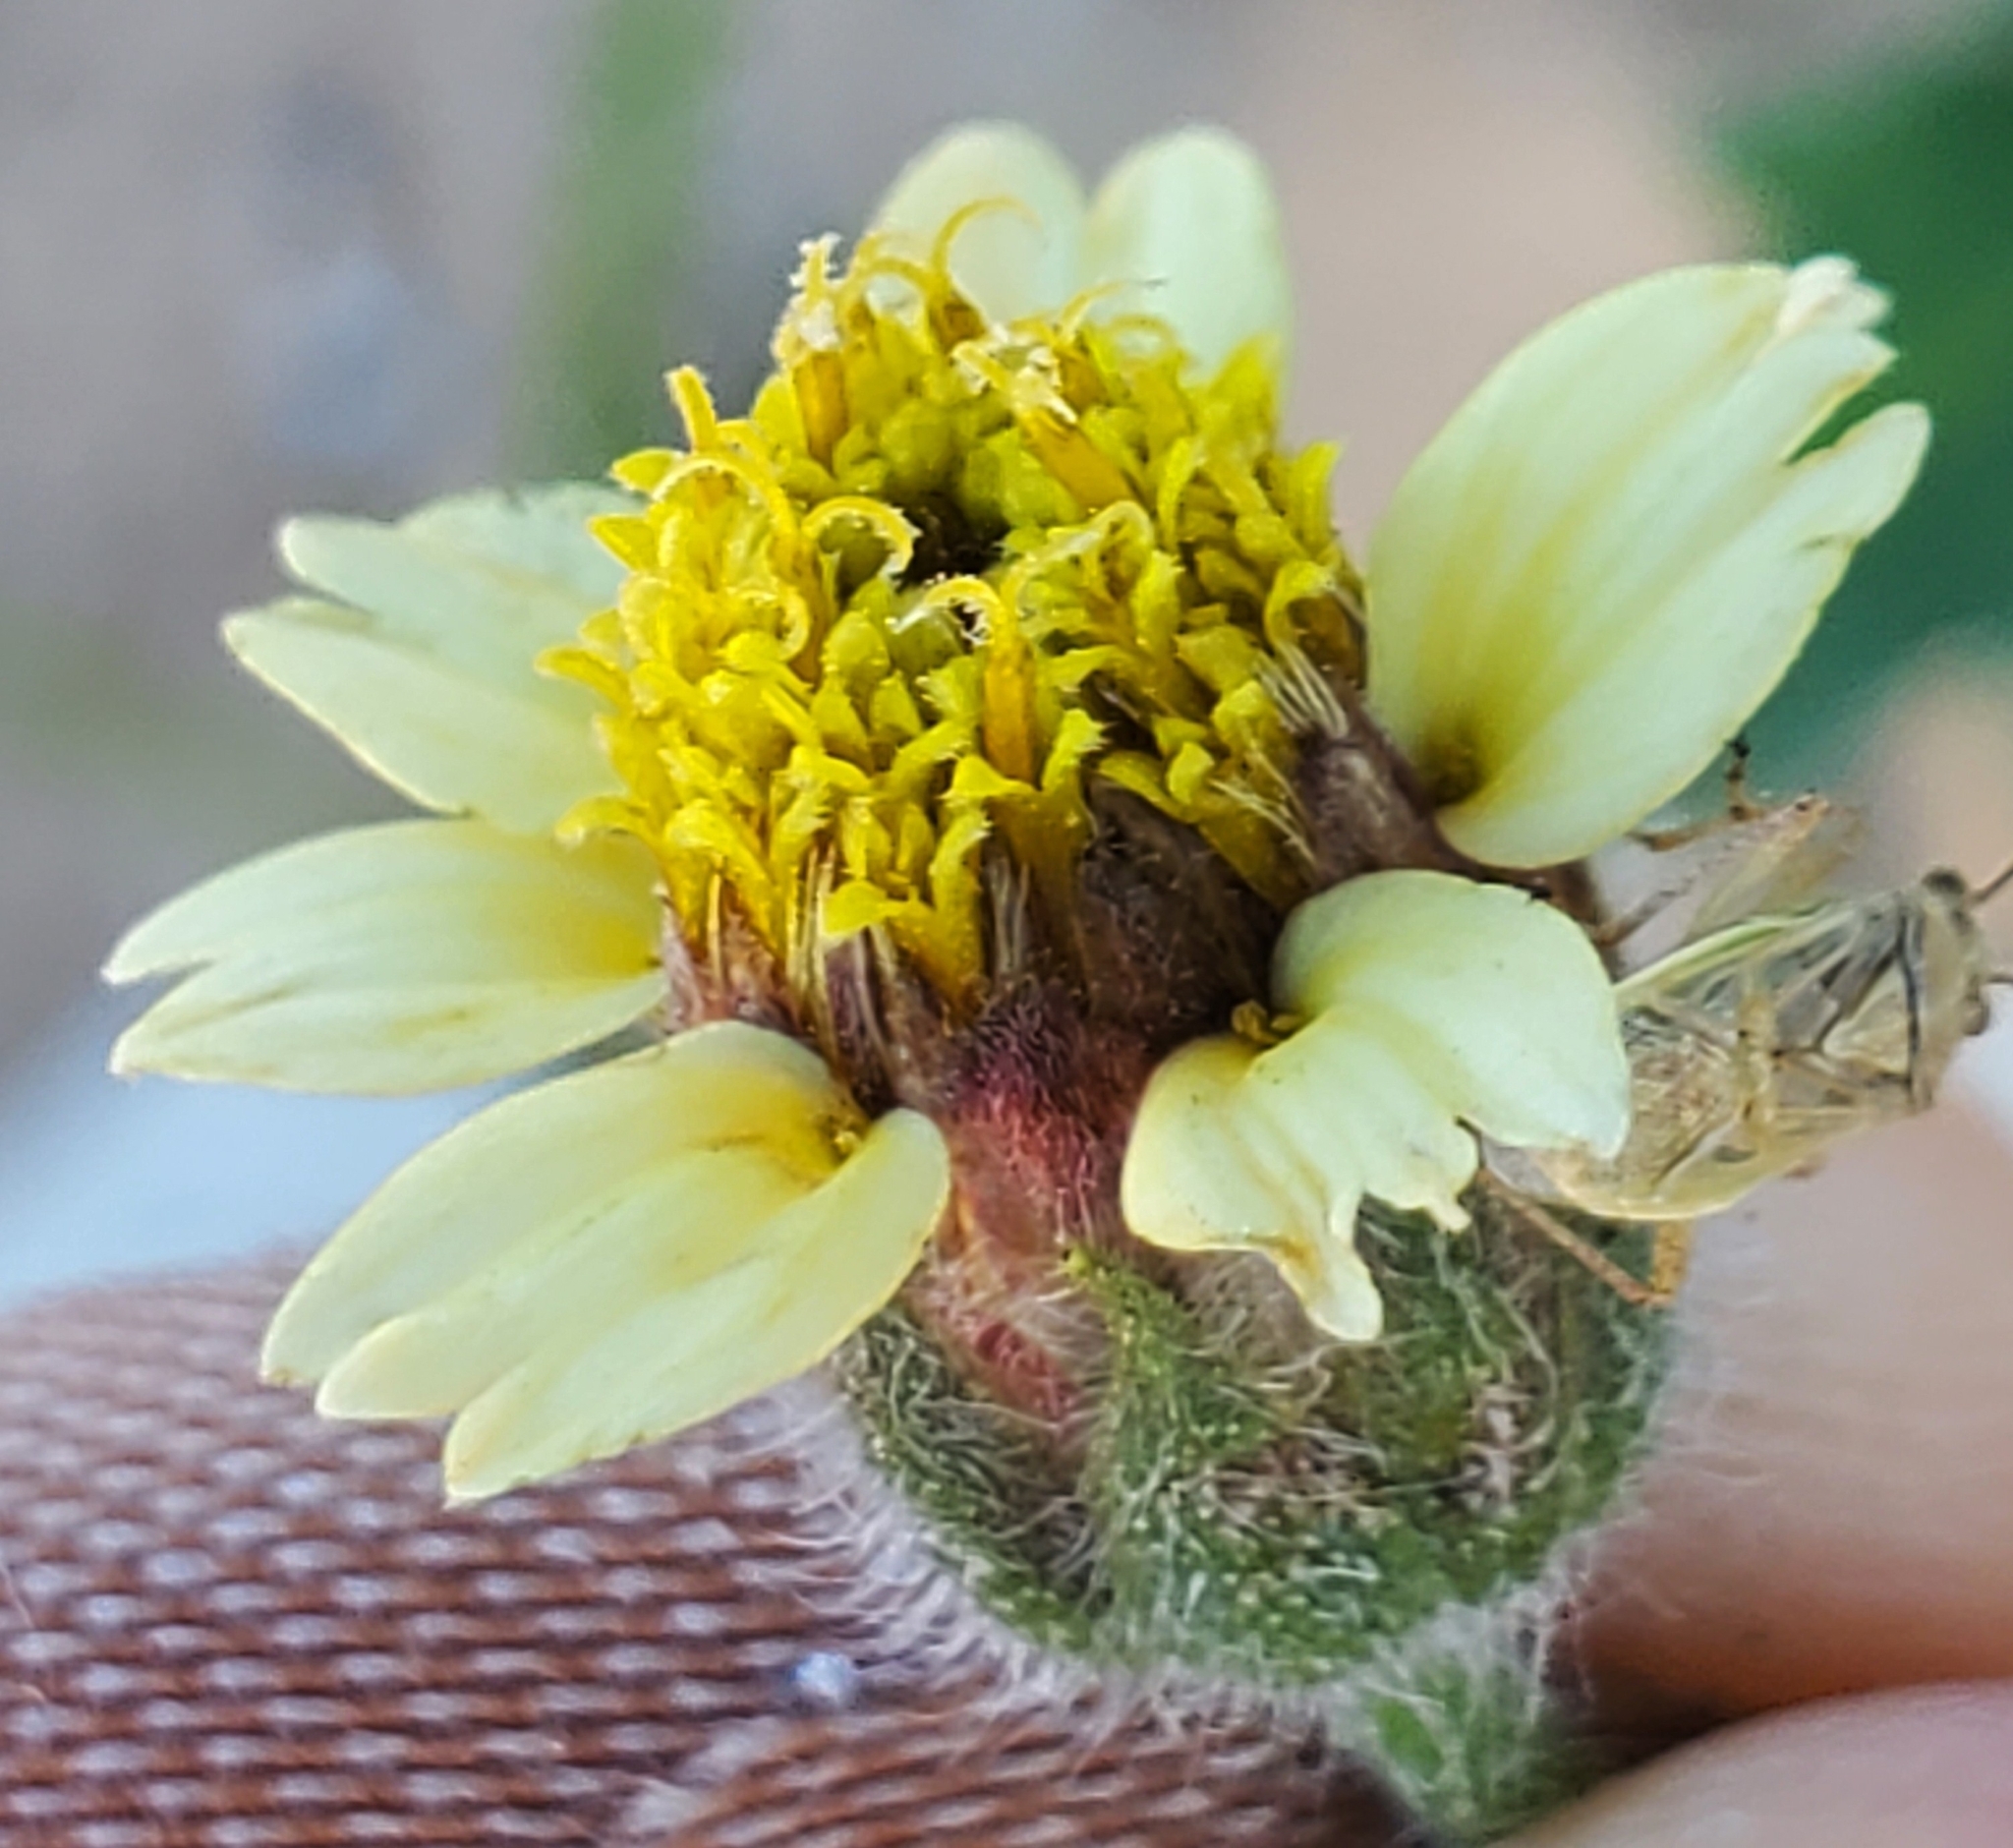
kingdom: Plantae
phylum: Tracheophyta
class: Magnoliopsida
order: Asterales
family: Asteraceae
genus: Tridax
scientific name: Tridax procumbens
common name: Coatbuttons
